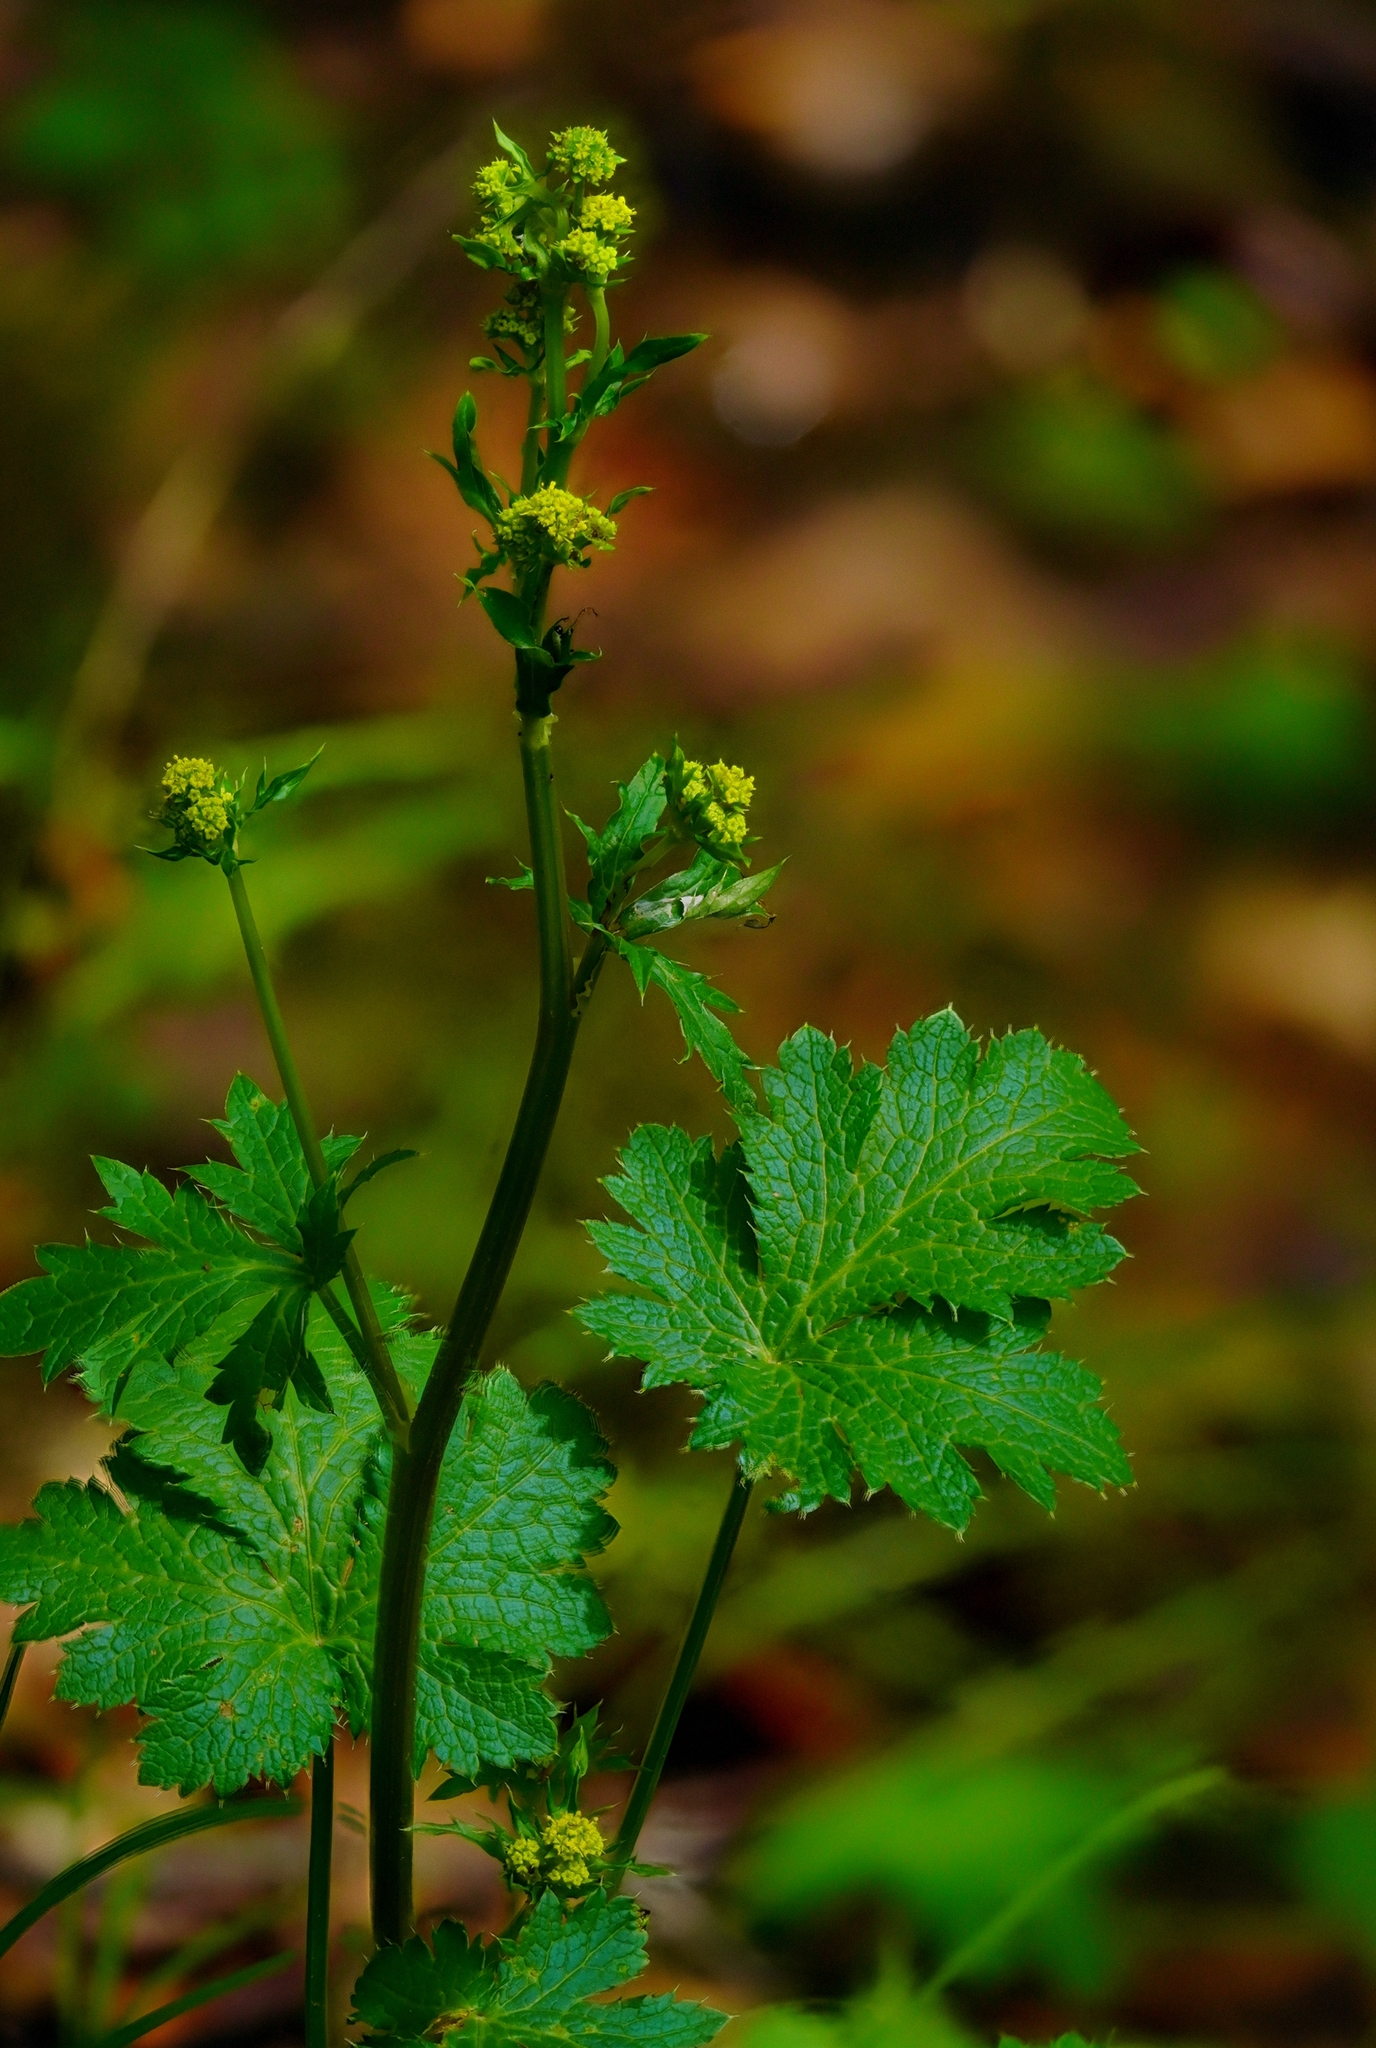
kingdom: Plantae
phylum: Tracheophyta
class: Magnoliopsida
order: Apiales
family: Apiaceae
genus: Sanicula
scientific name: Sanicula crassicaulis
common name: Western snakeroot
